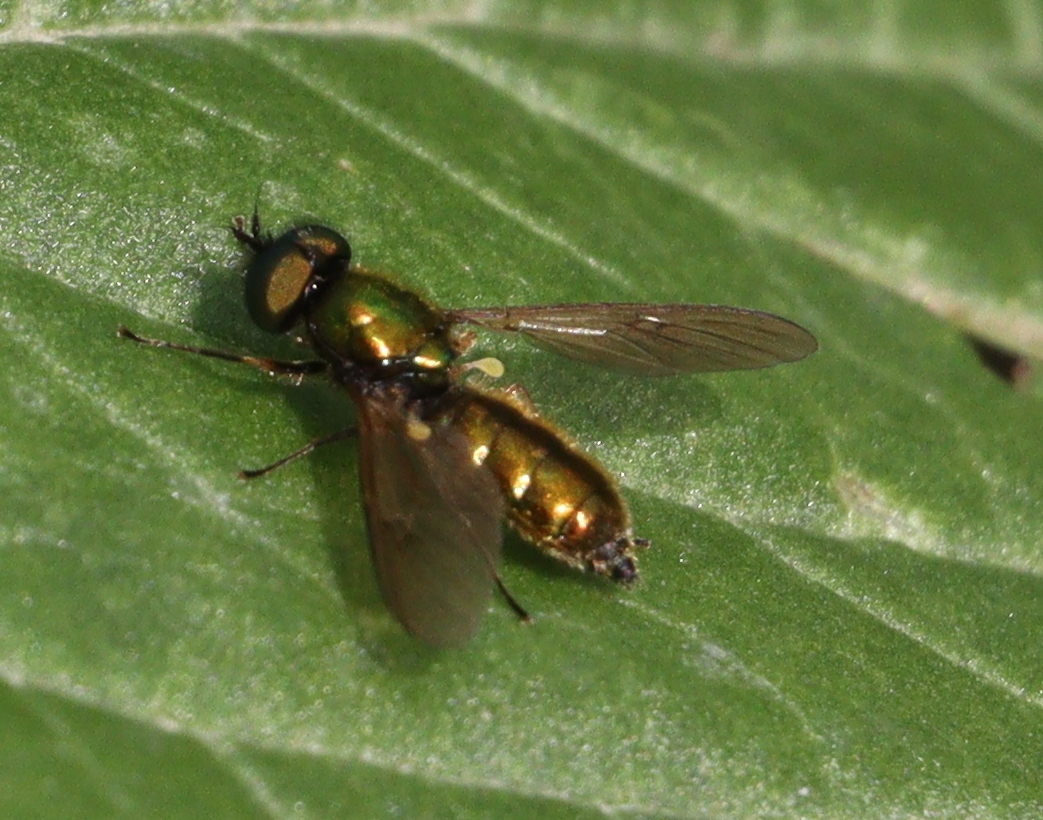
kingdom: Animalia
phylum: Arthropoda
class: Insecta
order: Diptera
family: Stratiomyidae
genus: Chloromyia
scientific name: Chloromyia formosa
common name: Soldier fly
